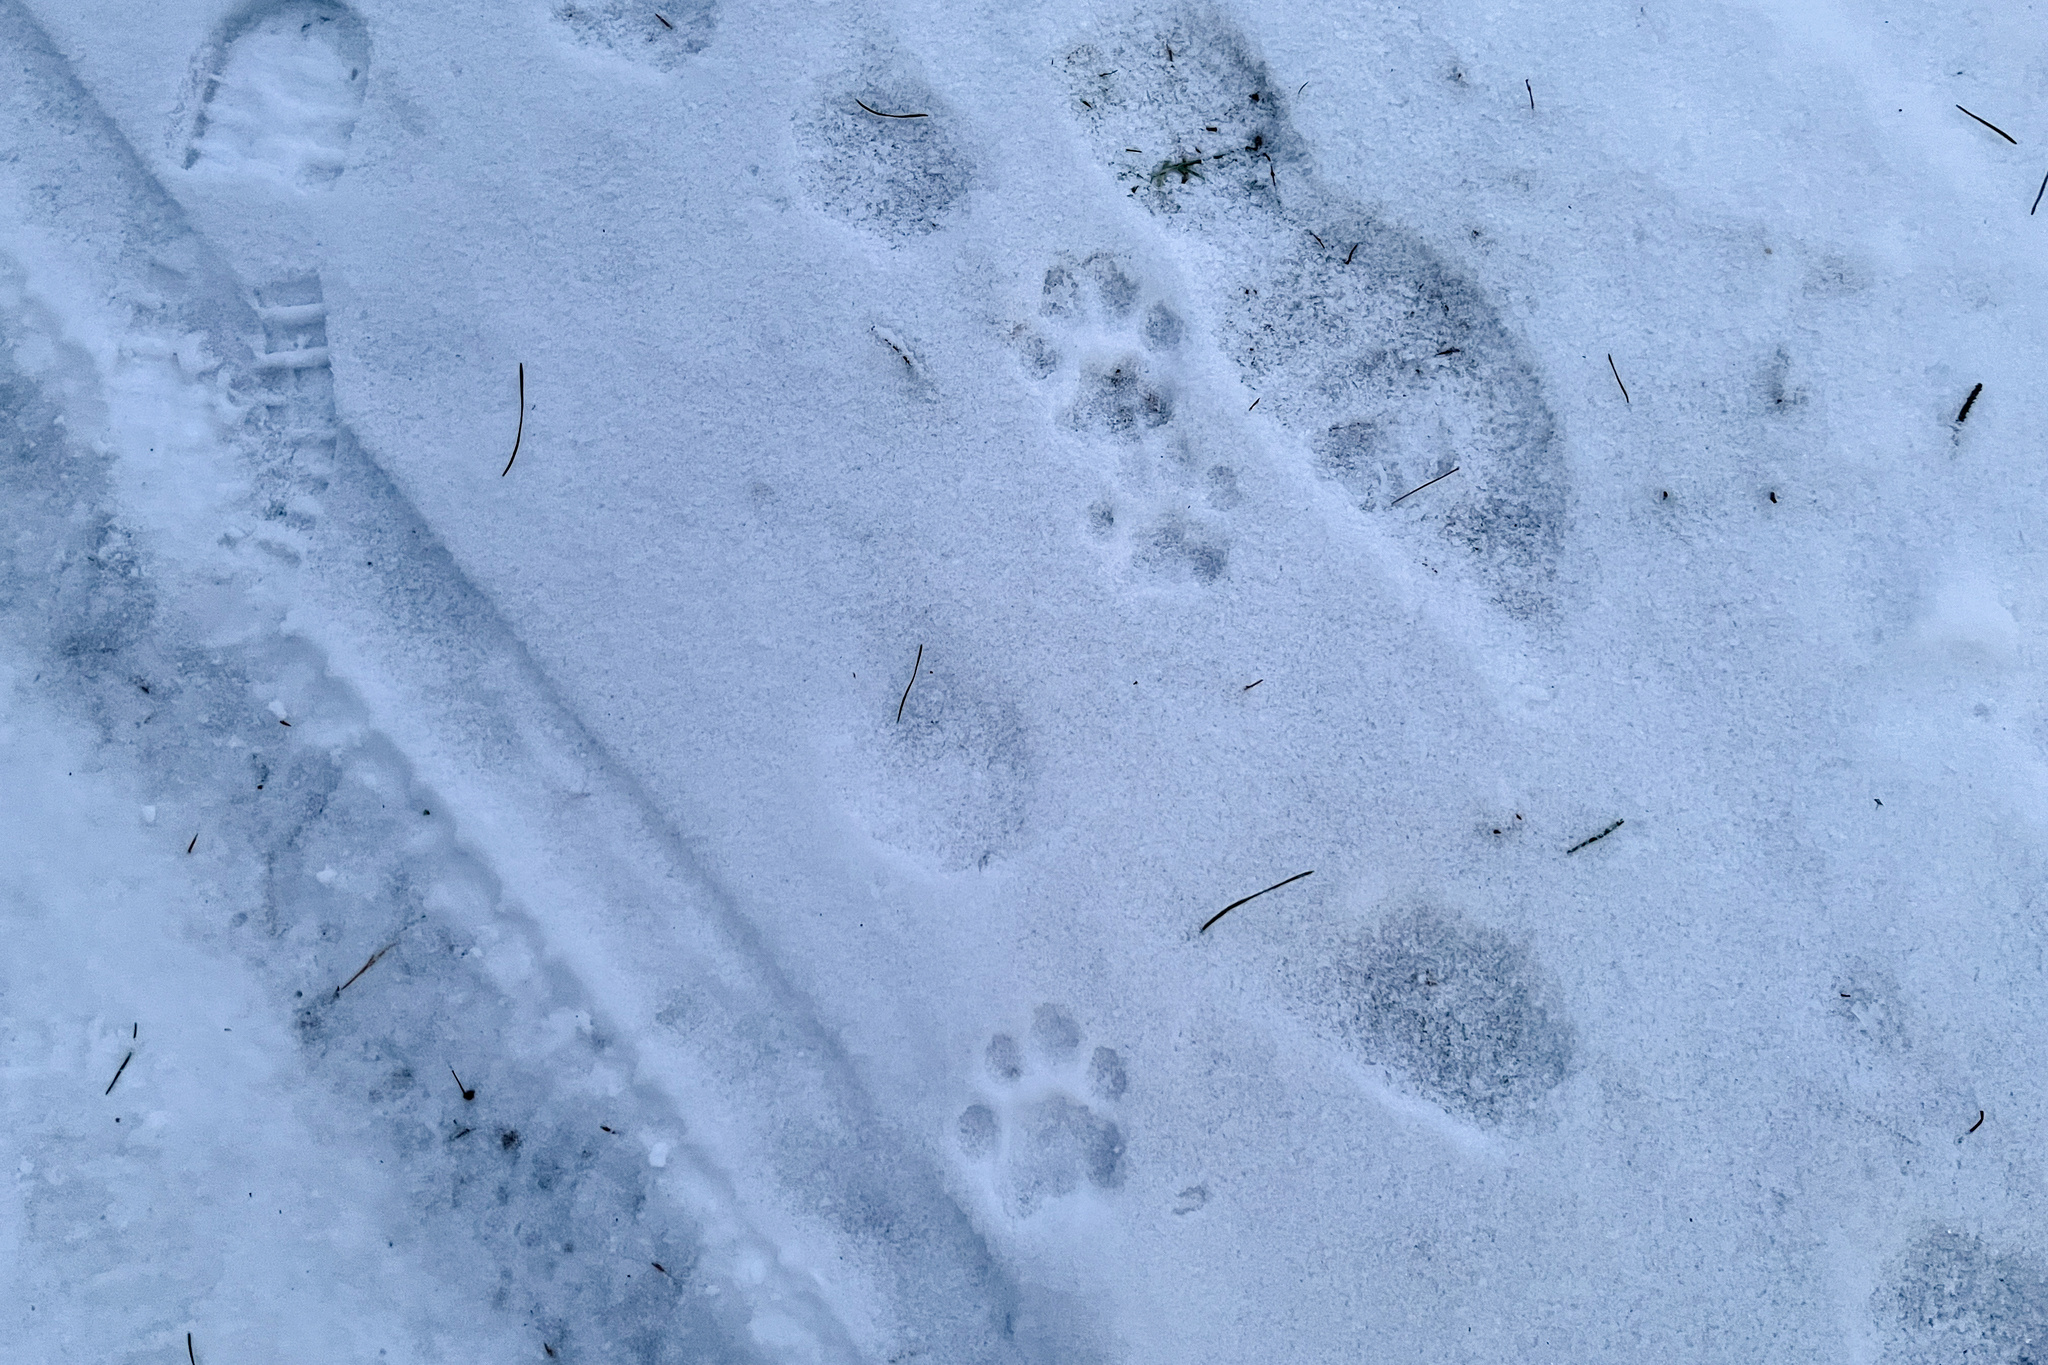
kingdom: Animalia
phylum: Chordata
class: Mammalia
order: Carnivora
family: Felidae
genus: Lynx
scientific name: Lynx lynx
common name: Eurasian lynx
